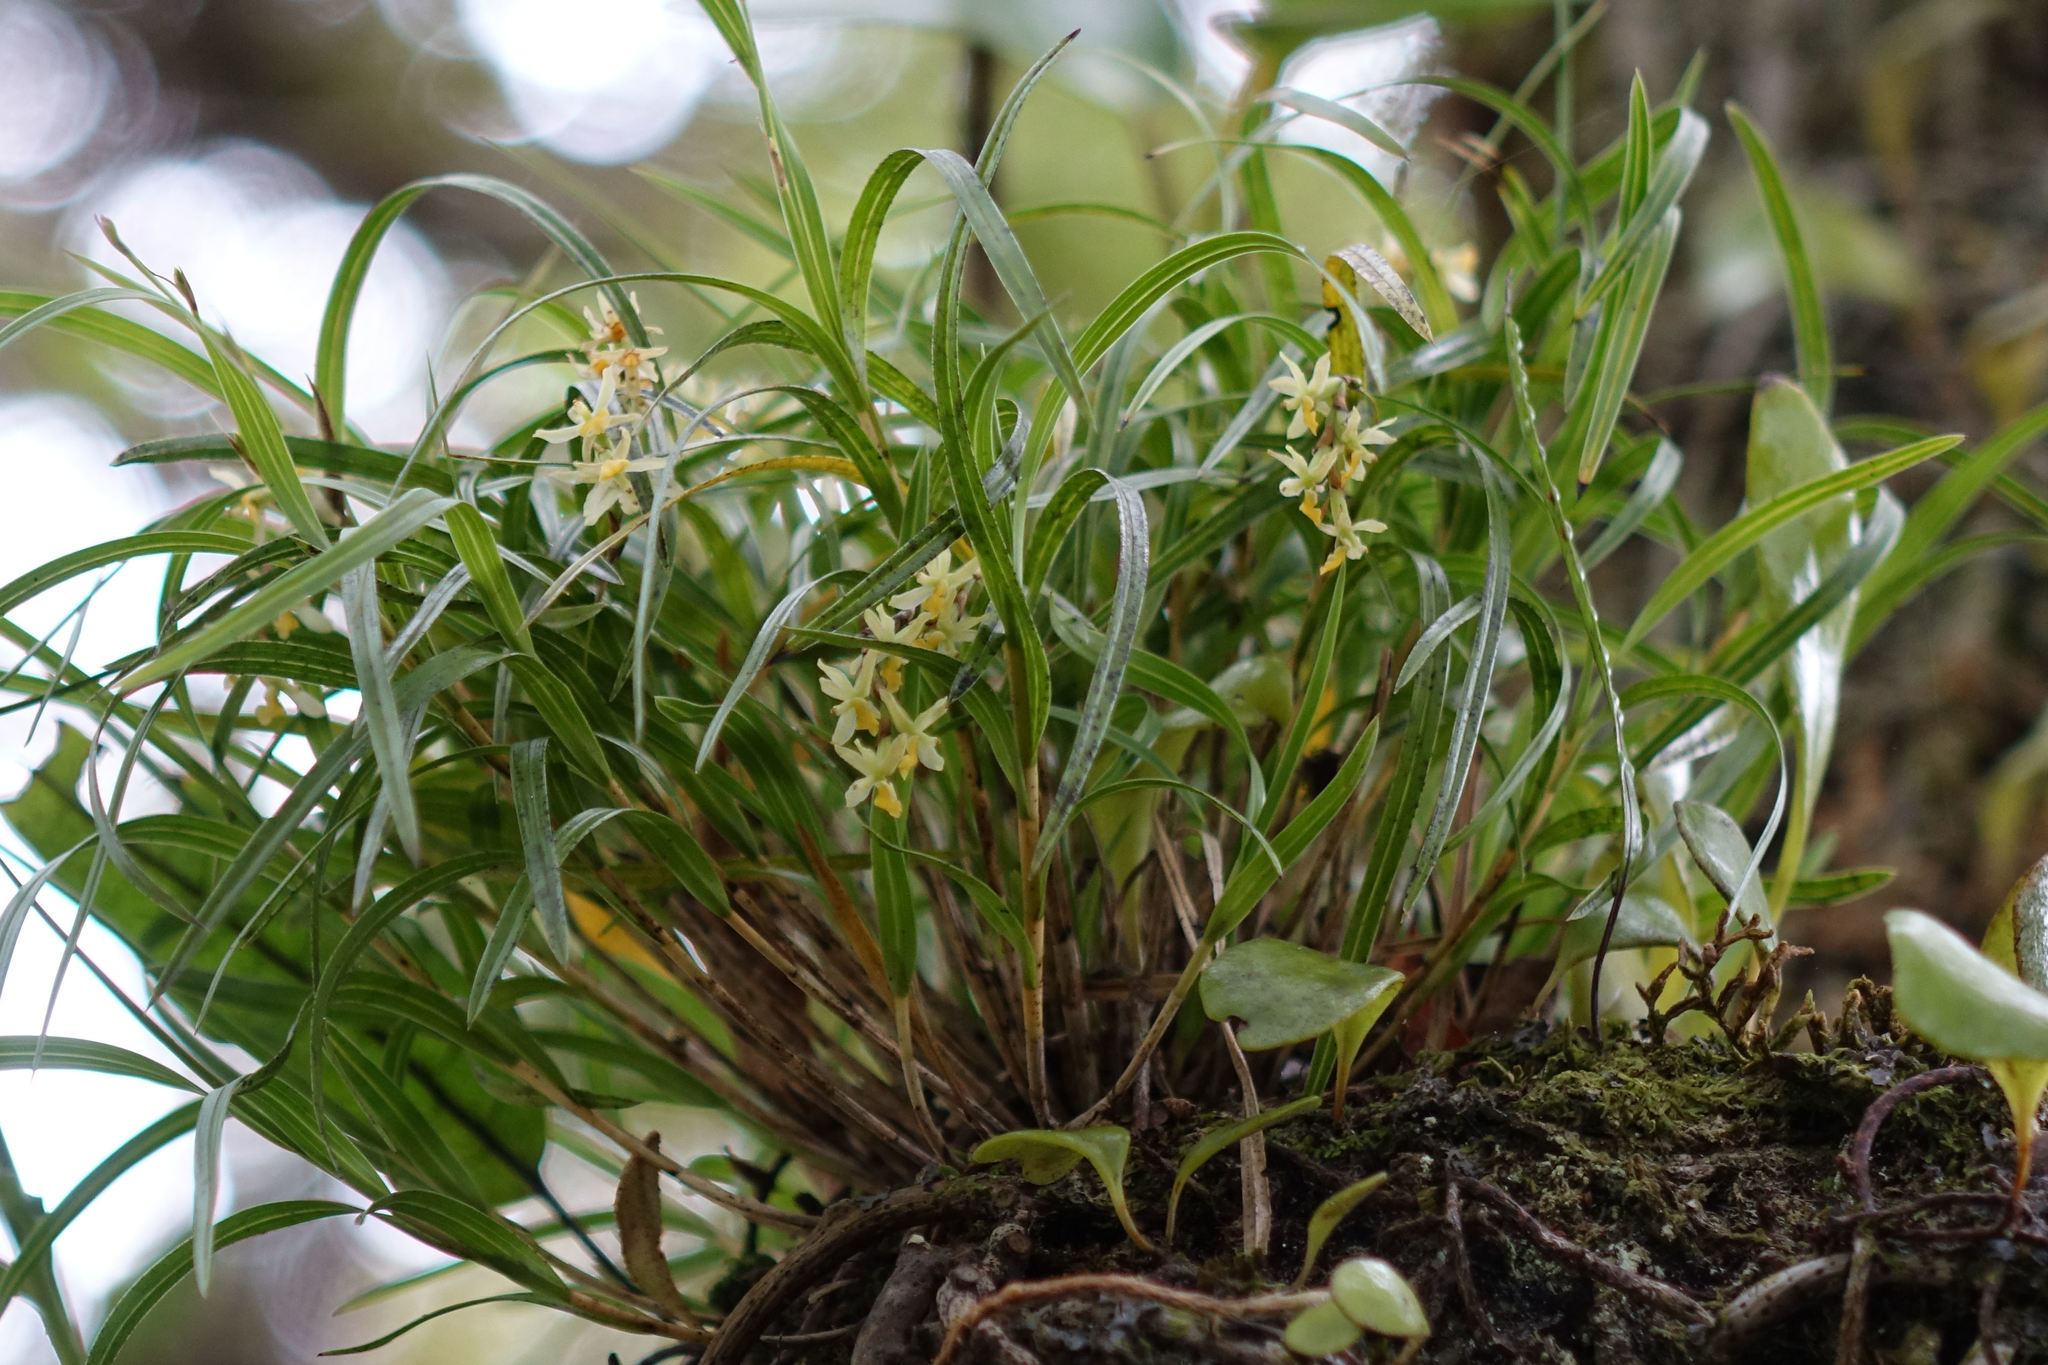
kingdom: Plantae
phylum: Tracheophyta
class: Liliopsida
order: Asparagales
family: Orchidaceae
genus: Earina
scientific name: Earina mucronata
